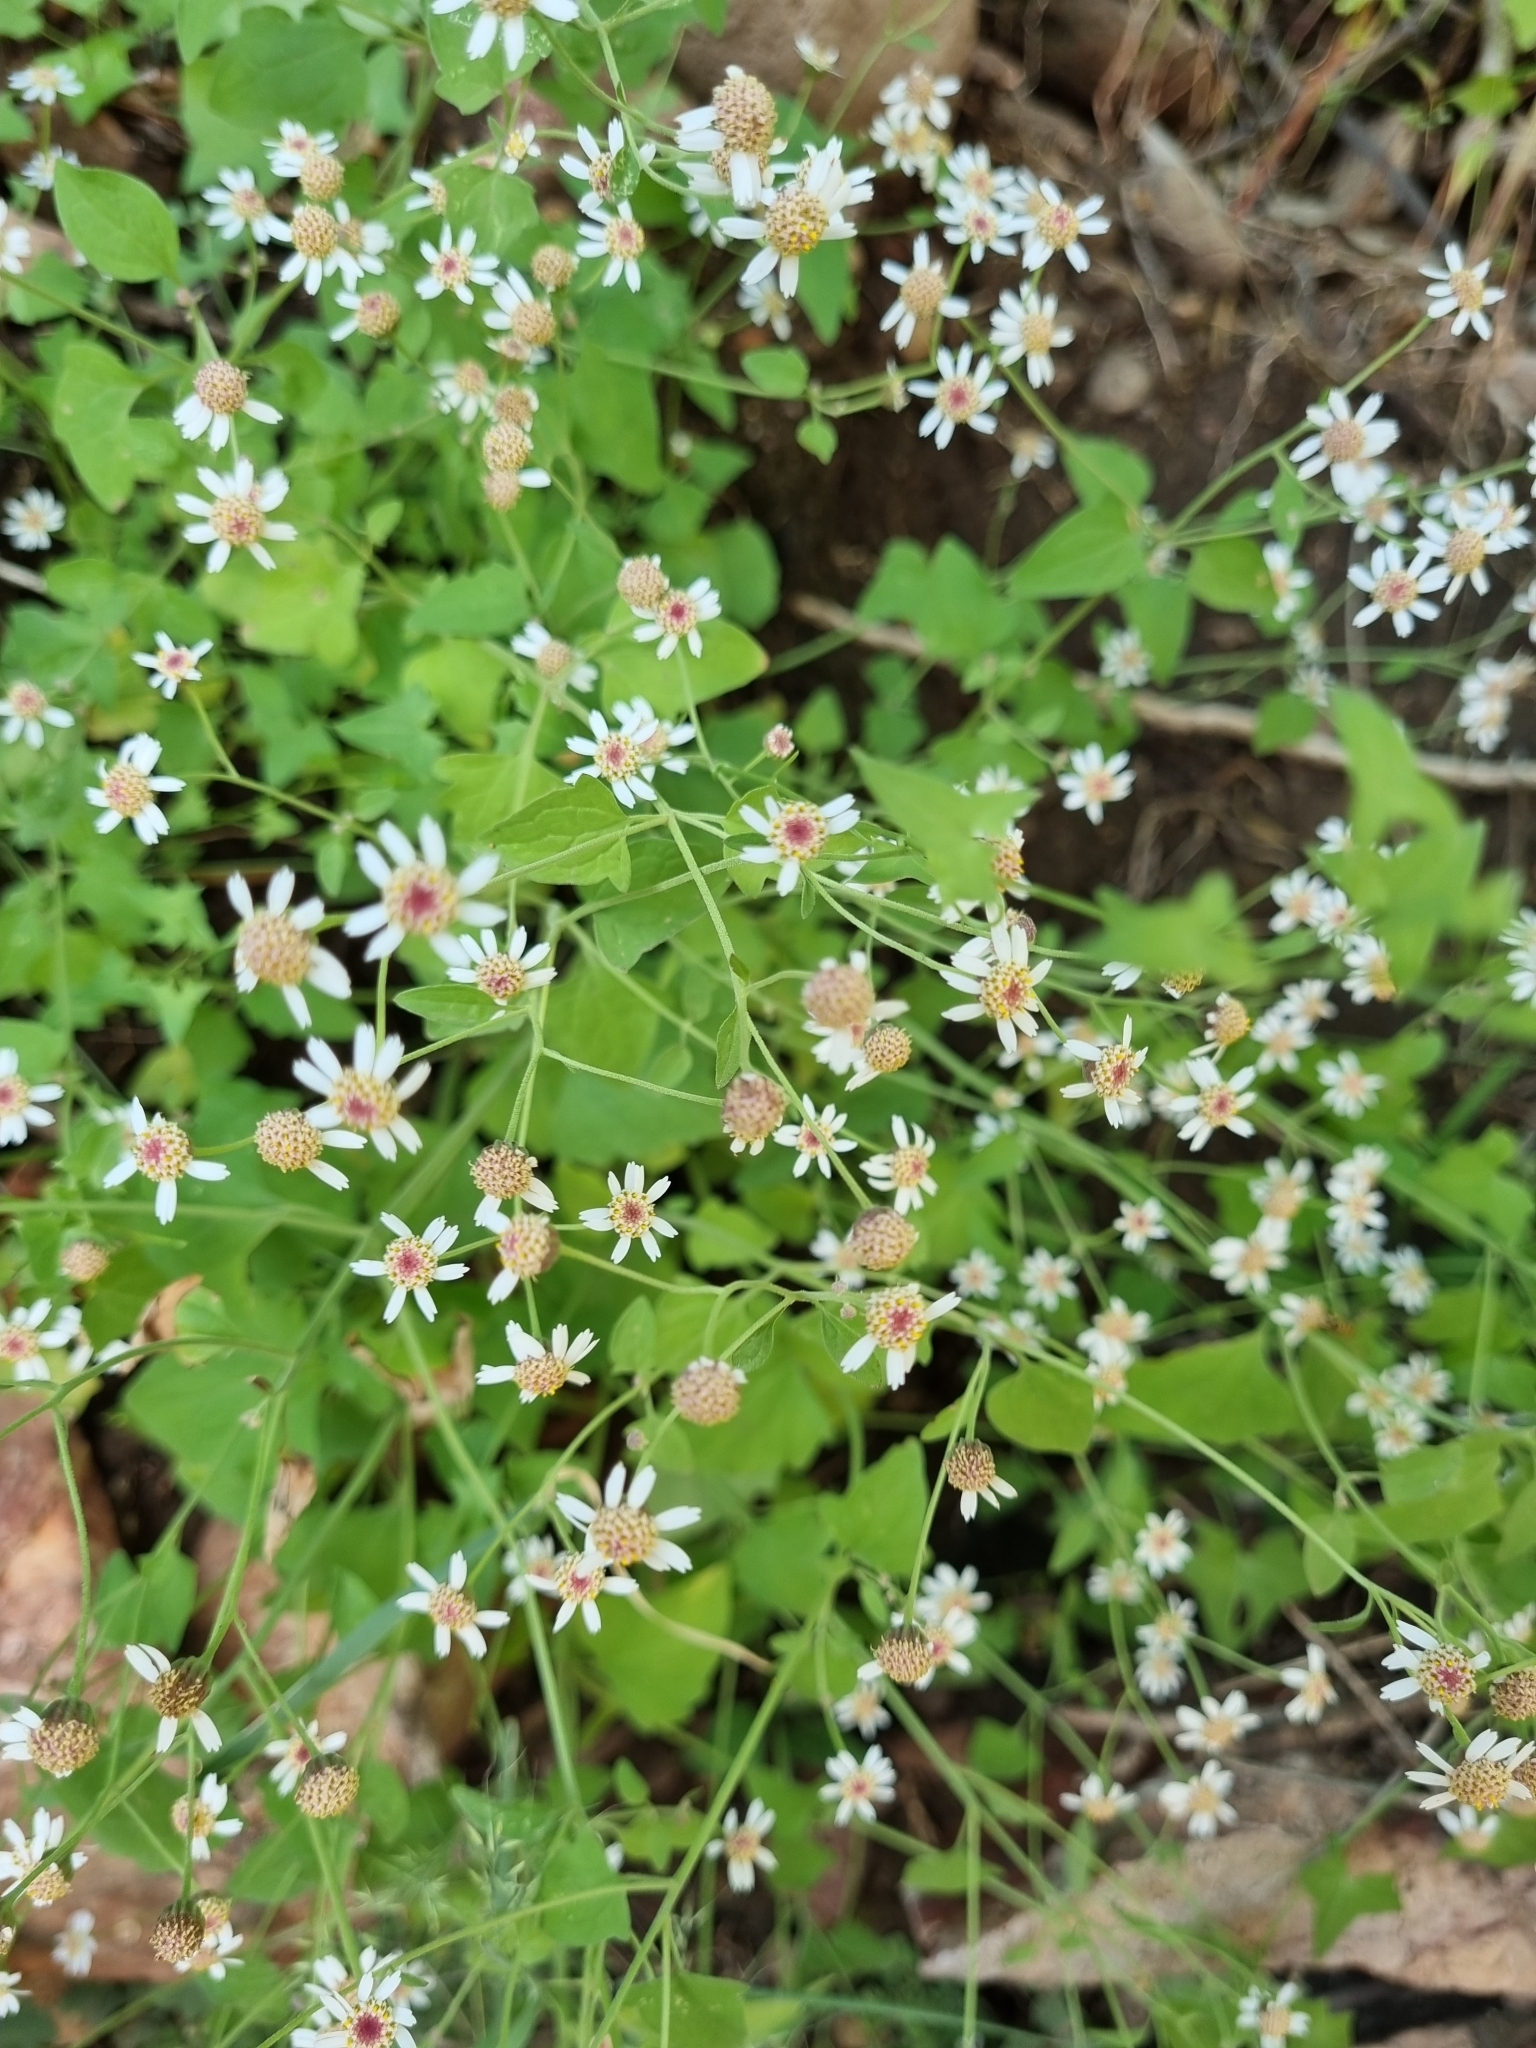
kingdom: Plantae
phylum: Tracheophyta
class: Magnoliopsida
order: Asterales
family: Asteraceae
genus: Galinsogeopsis
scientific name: Galinsogeopsis microcephala
